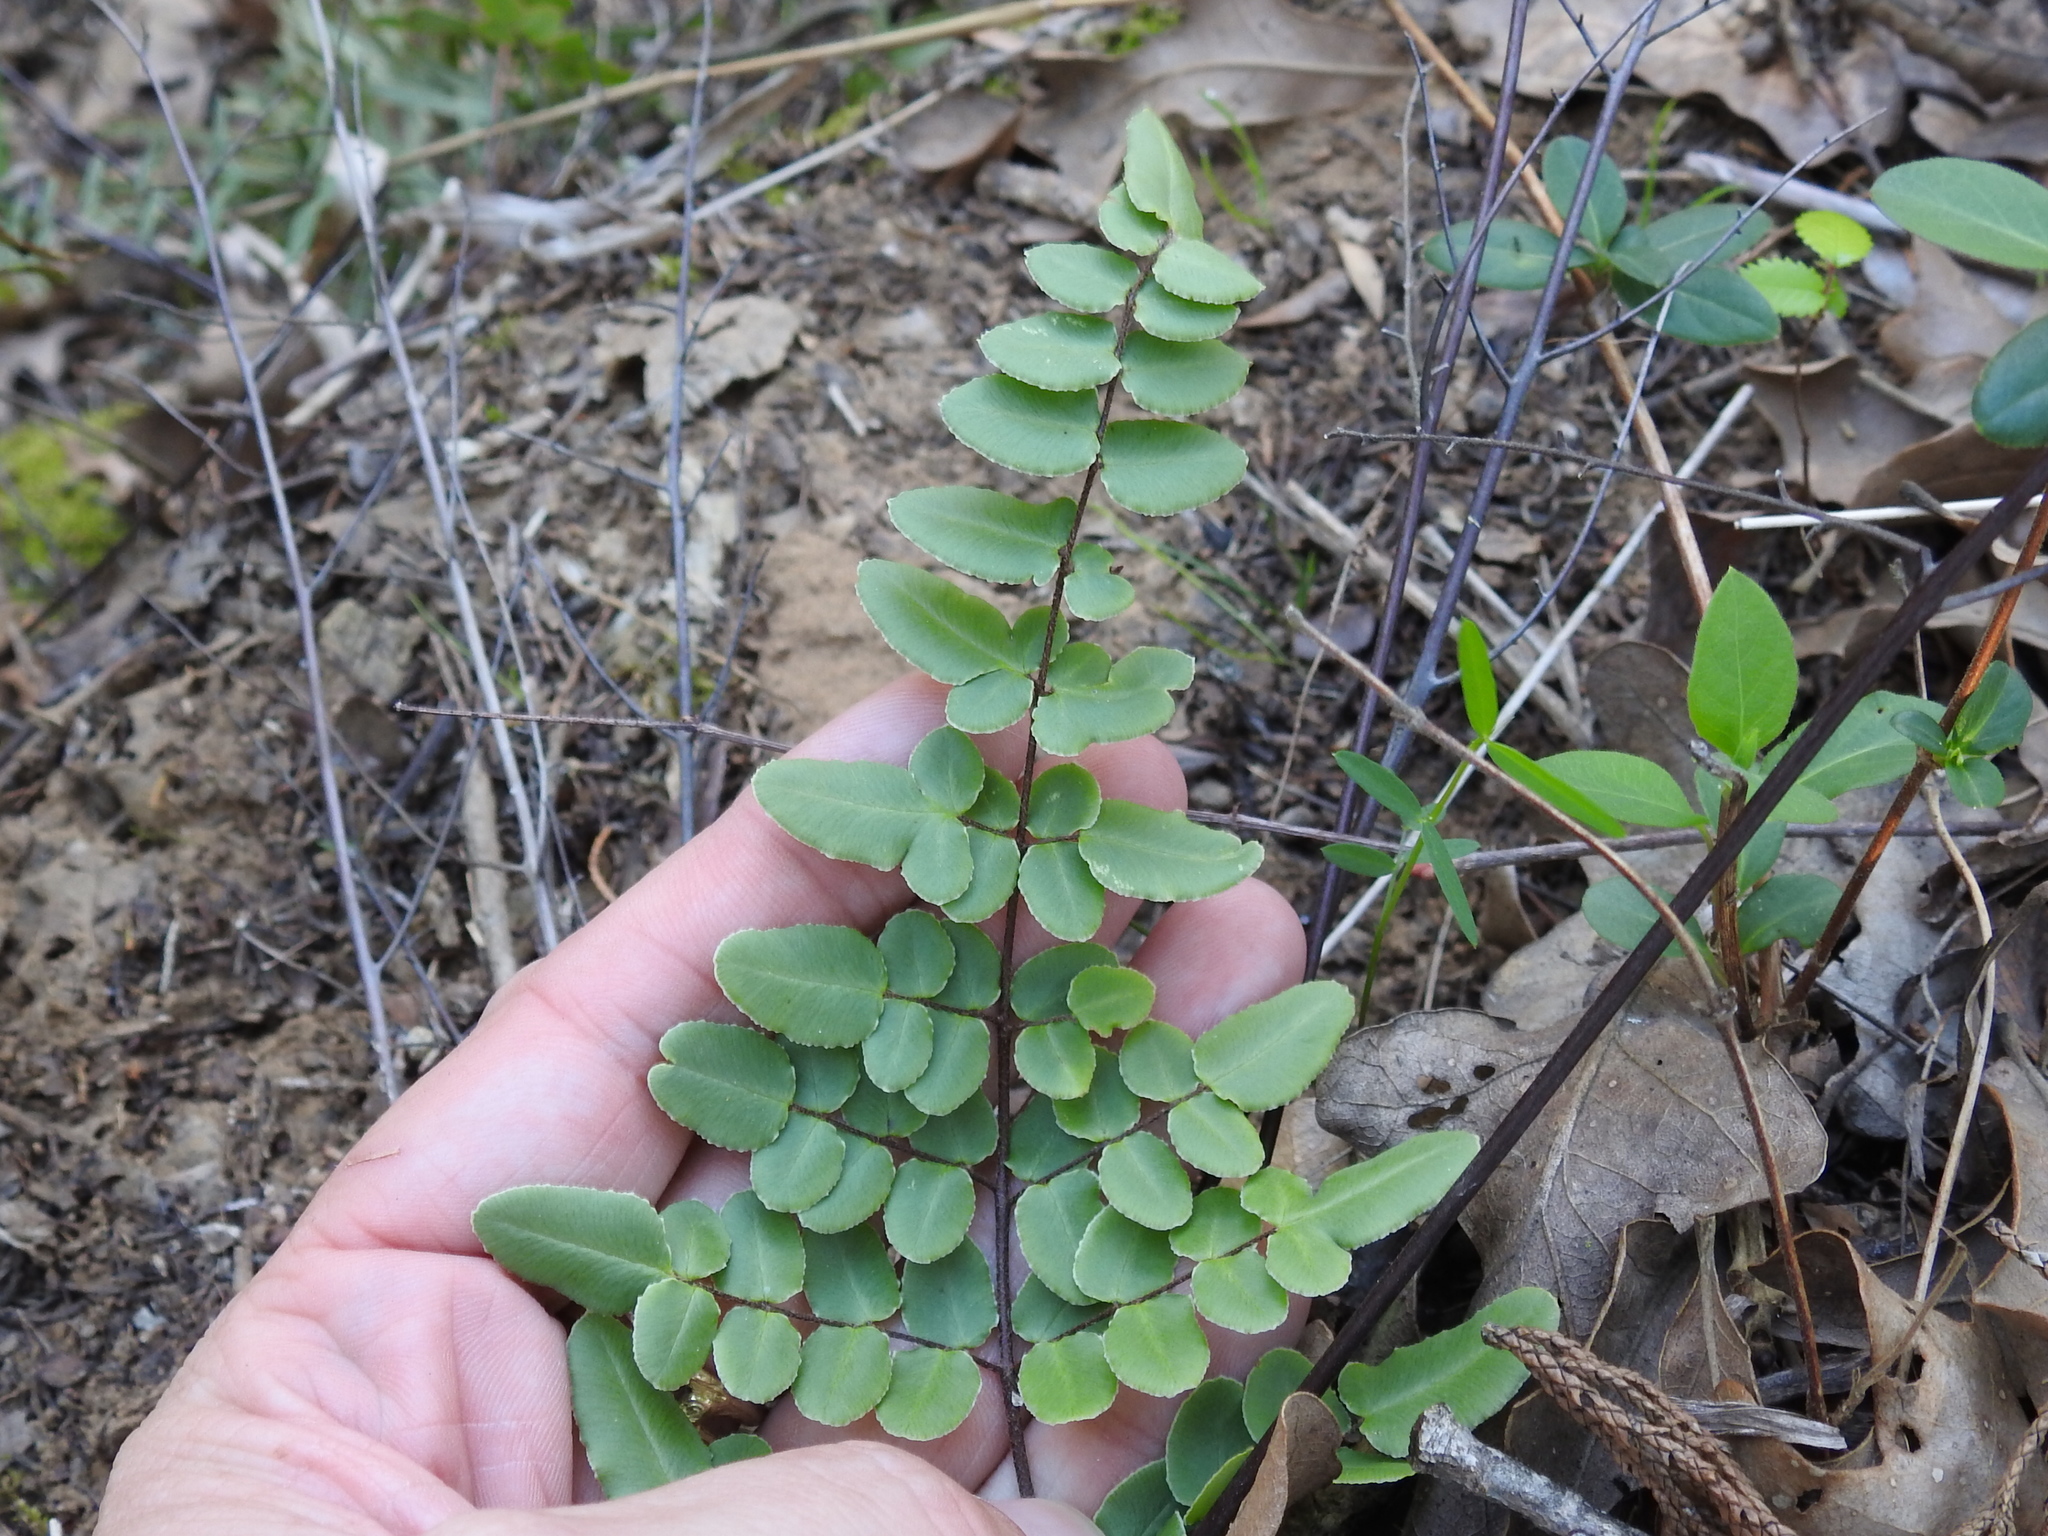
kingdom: Plantae
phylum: Tracheophyta
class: Polypodiopsida
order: Polypodiales
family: Pteridaceae
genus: Pellaea
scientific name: Pellaea atropurpurea
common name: Hairy cliffbrake
